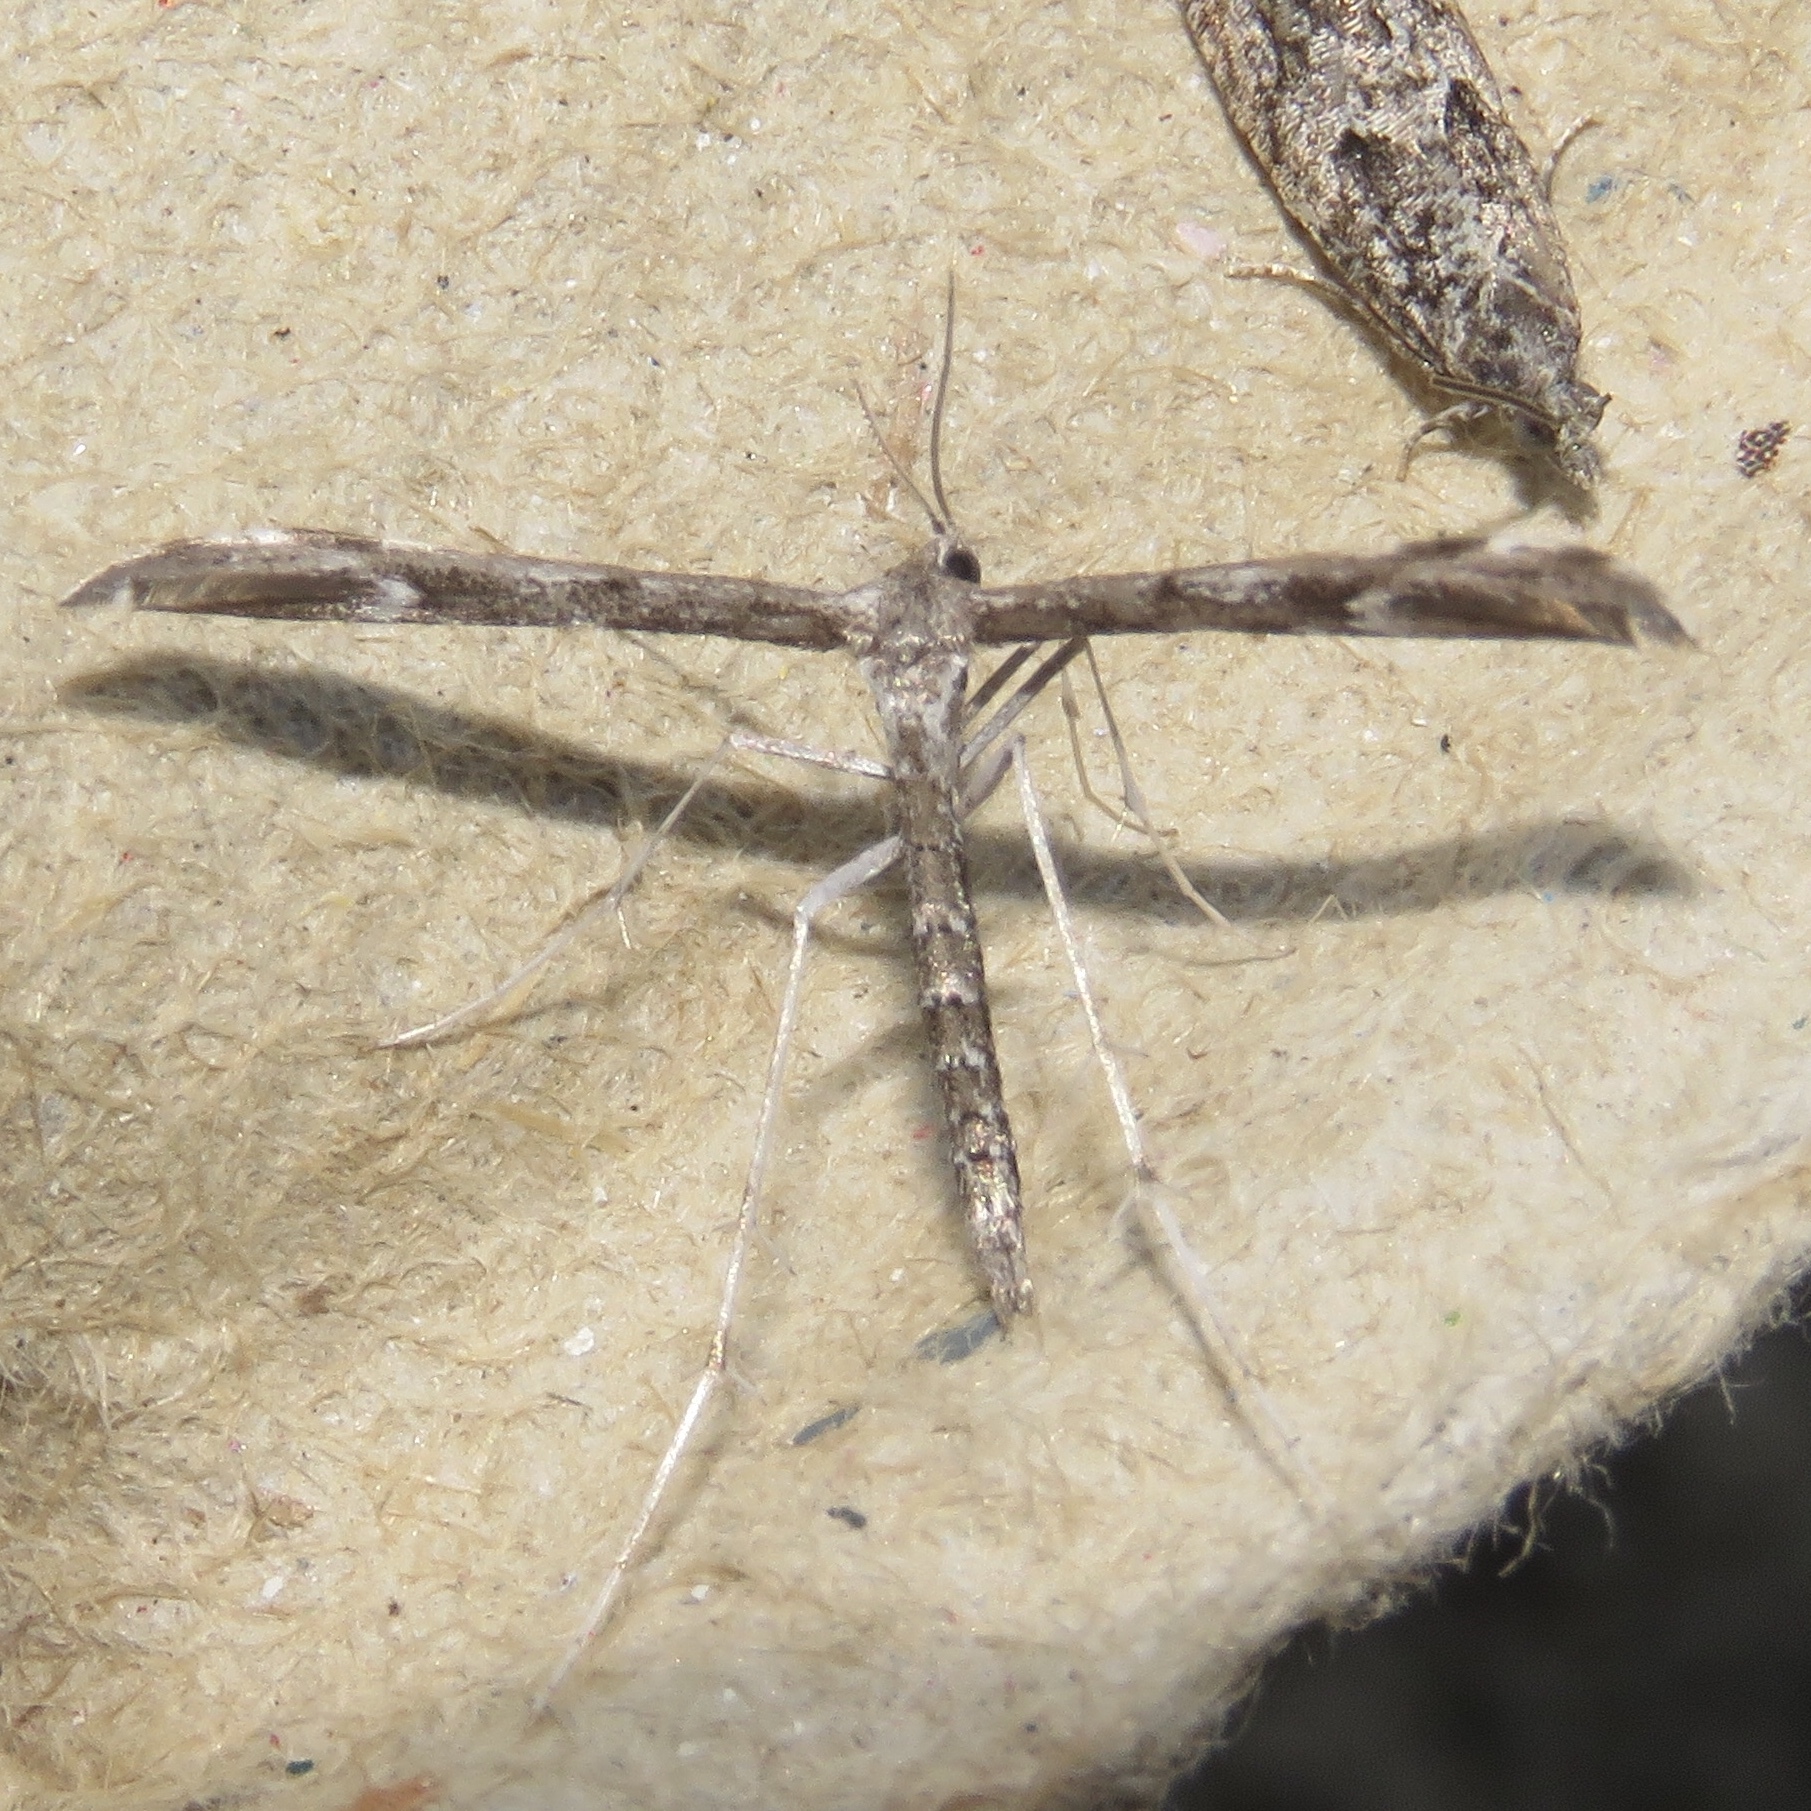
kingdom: Animalia
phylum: Arthropoda
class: Insecta
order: Lepidoptera
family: Pterophoridae
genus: Hellinsia
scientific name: Hellinsia inquinatus
